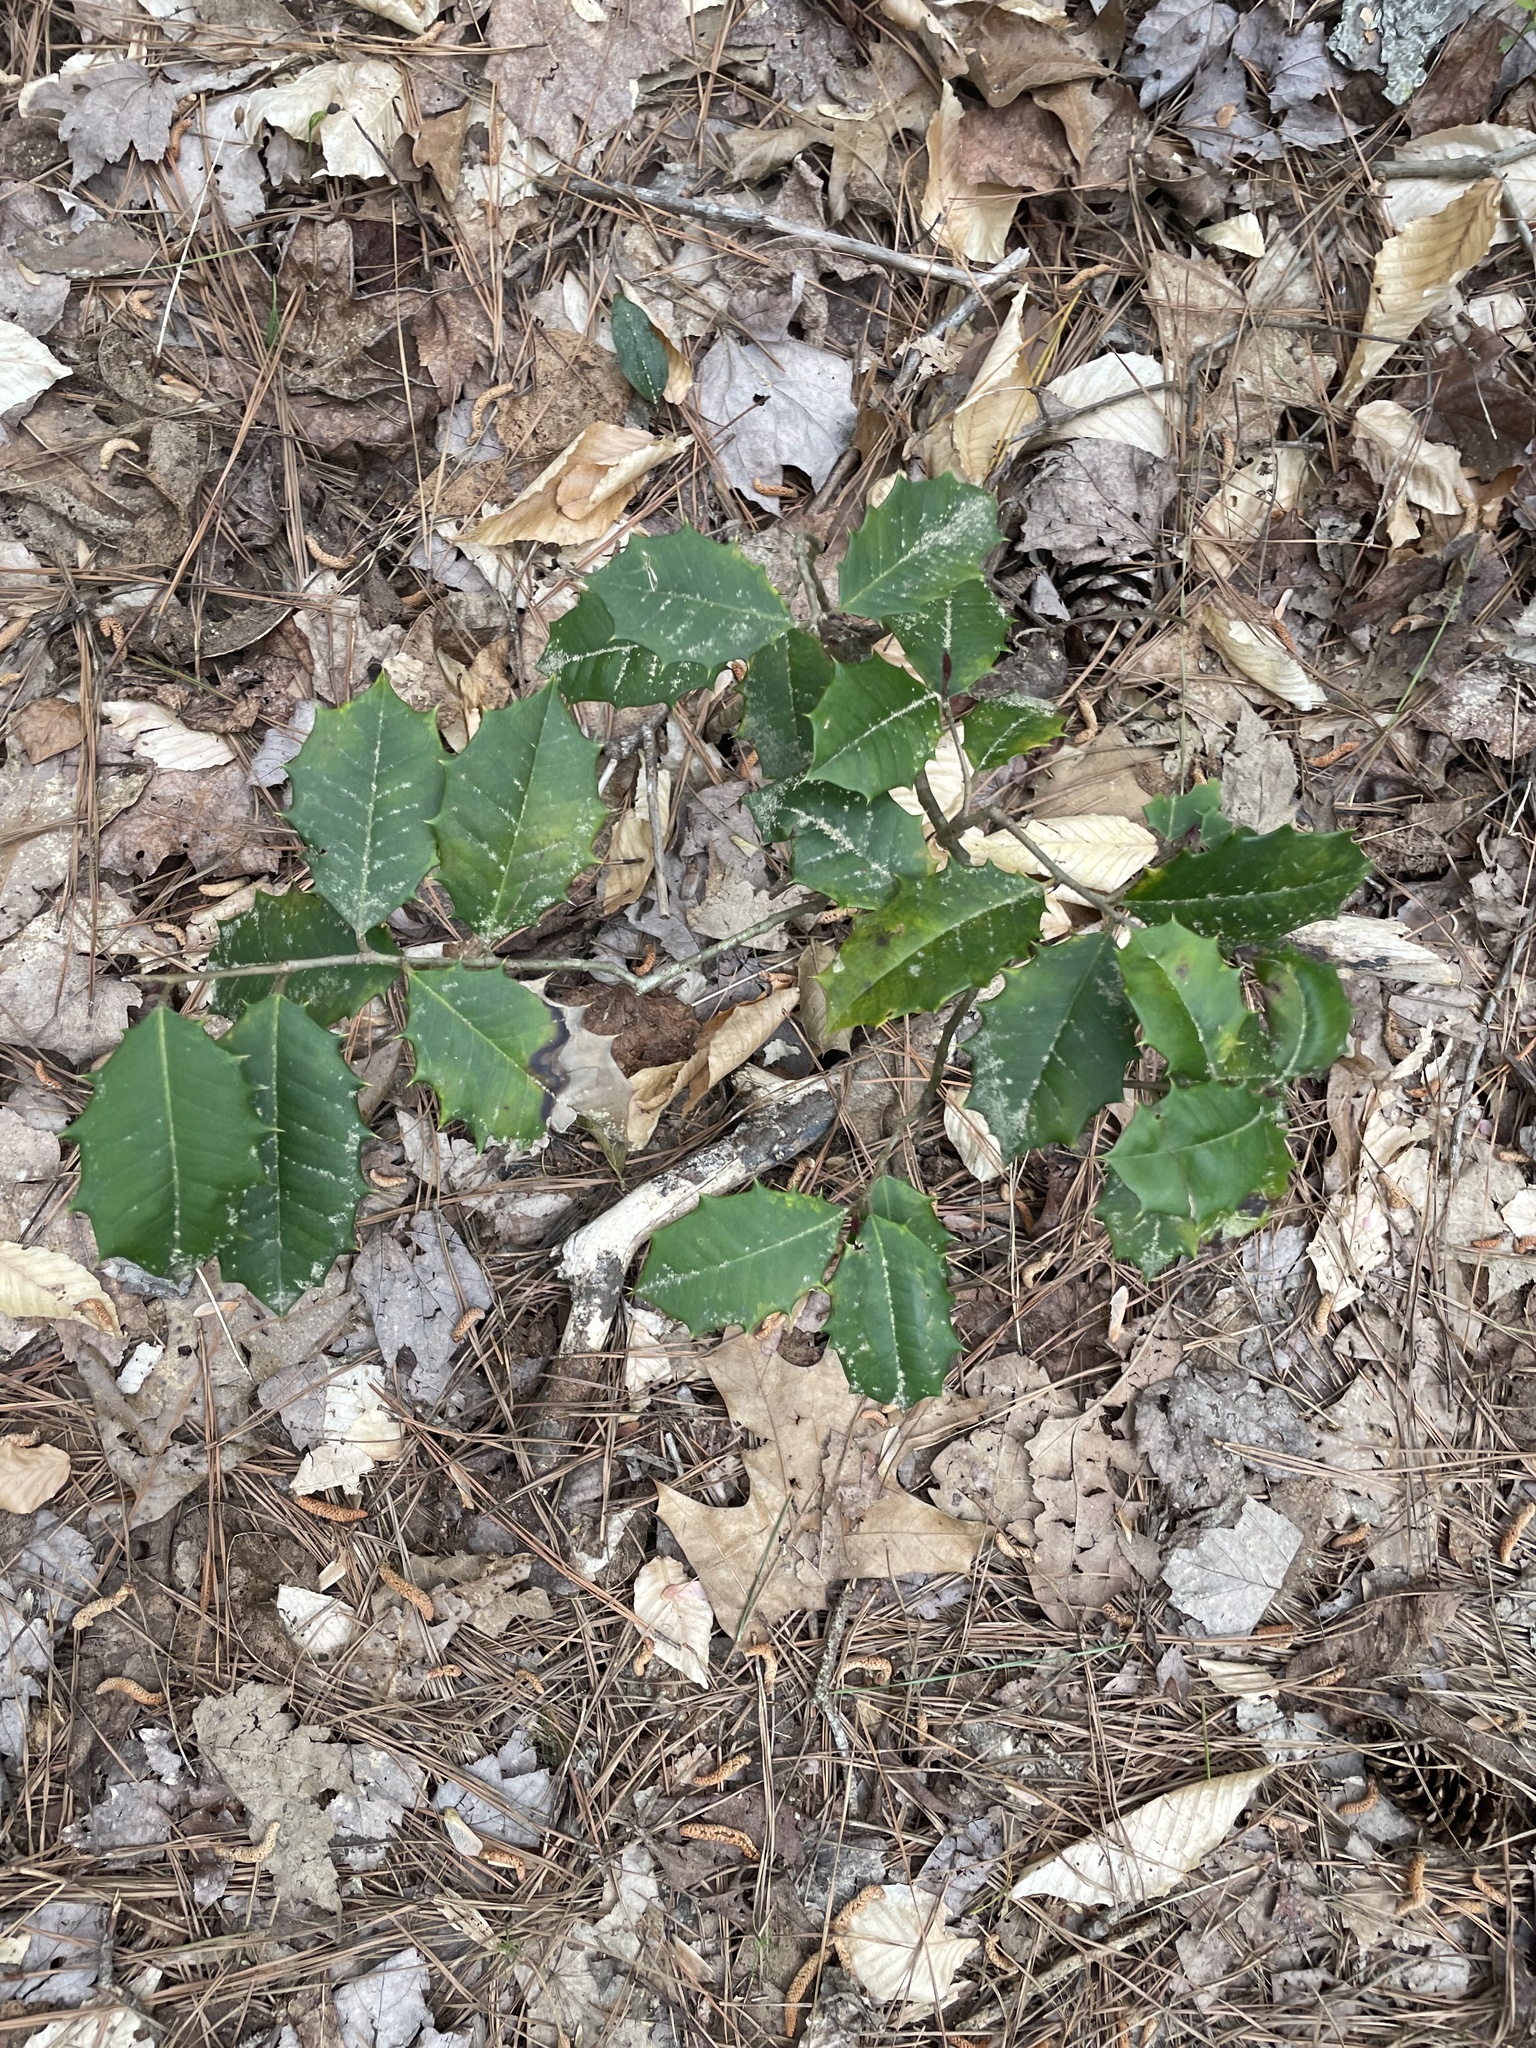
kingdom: Plantae
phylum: Tracheophyta
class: Magnoliopsida
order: Aquifoliales
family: Aquifoliaceae
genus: Ilex
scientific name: Ilex opaca
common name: American holly
